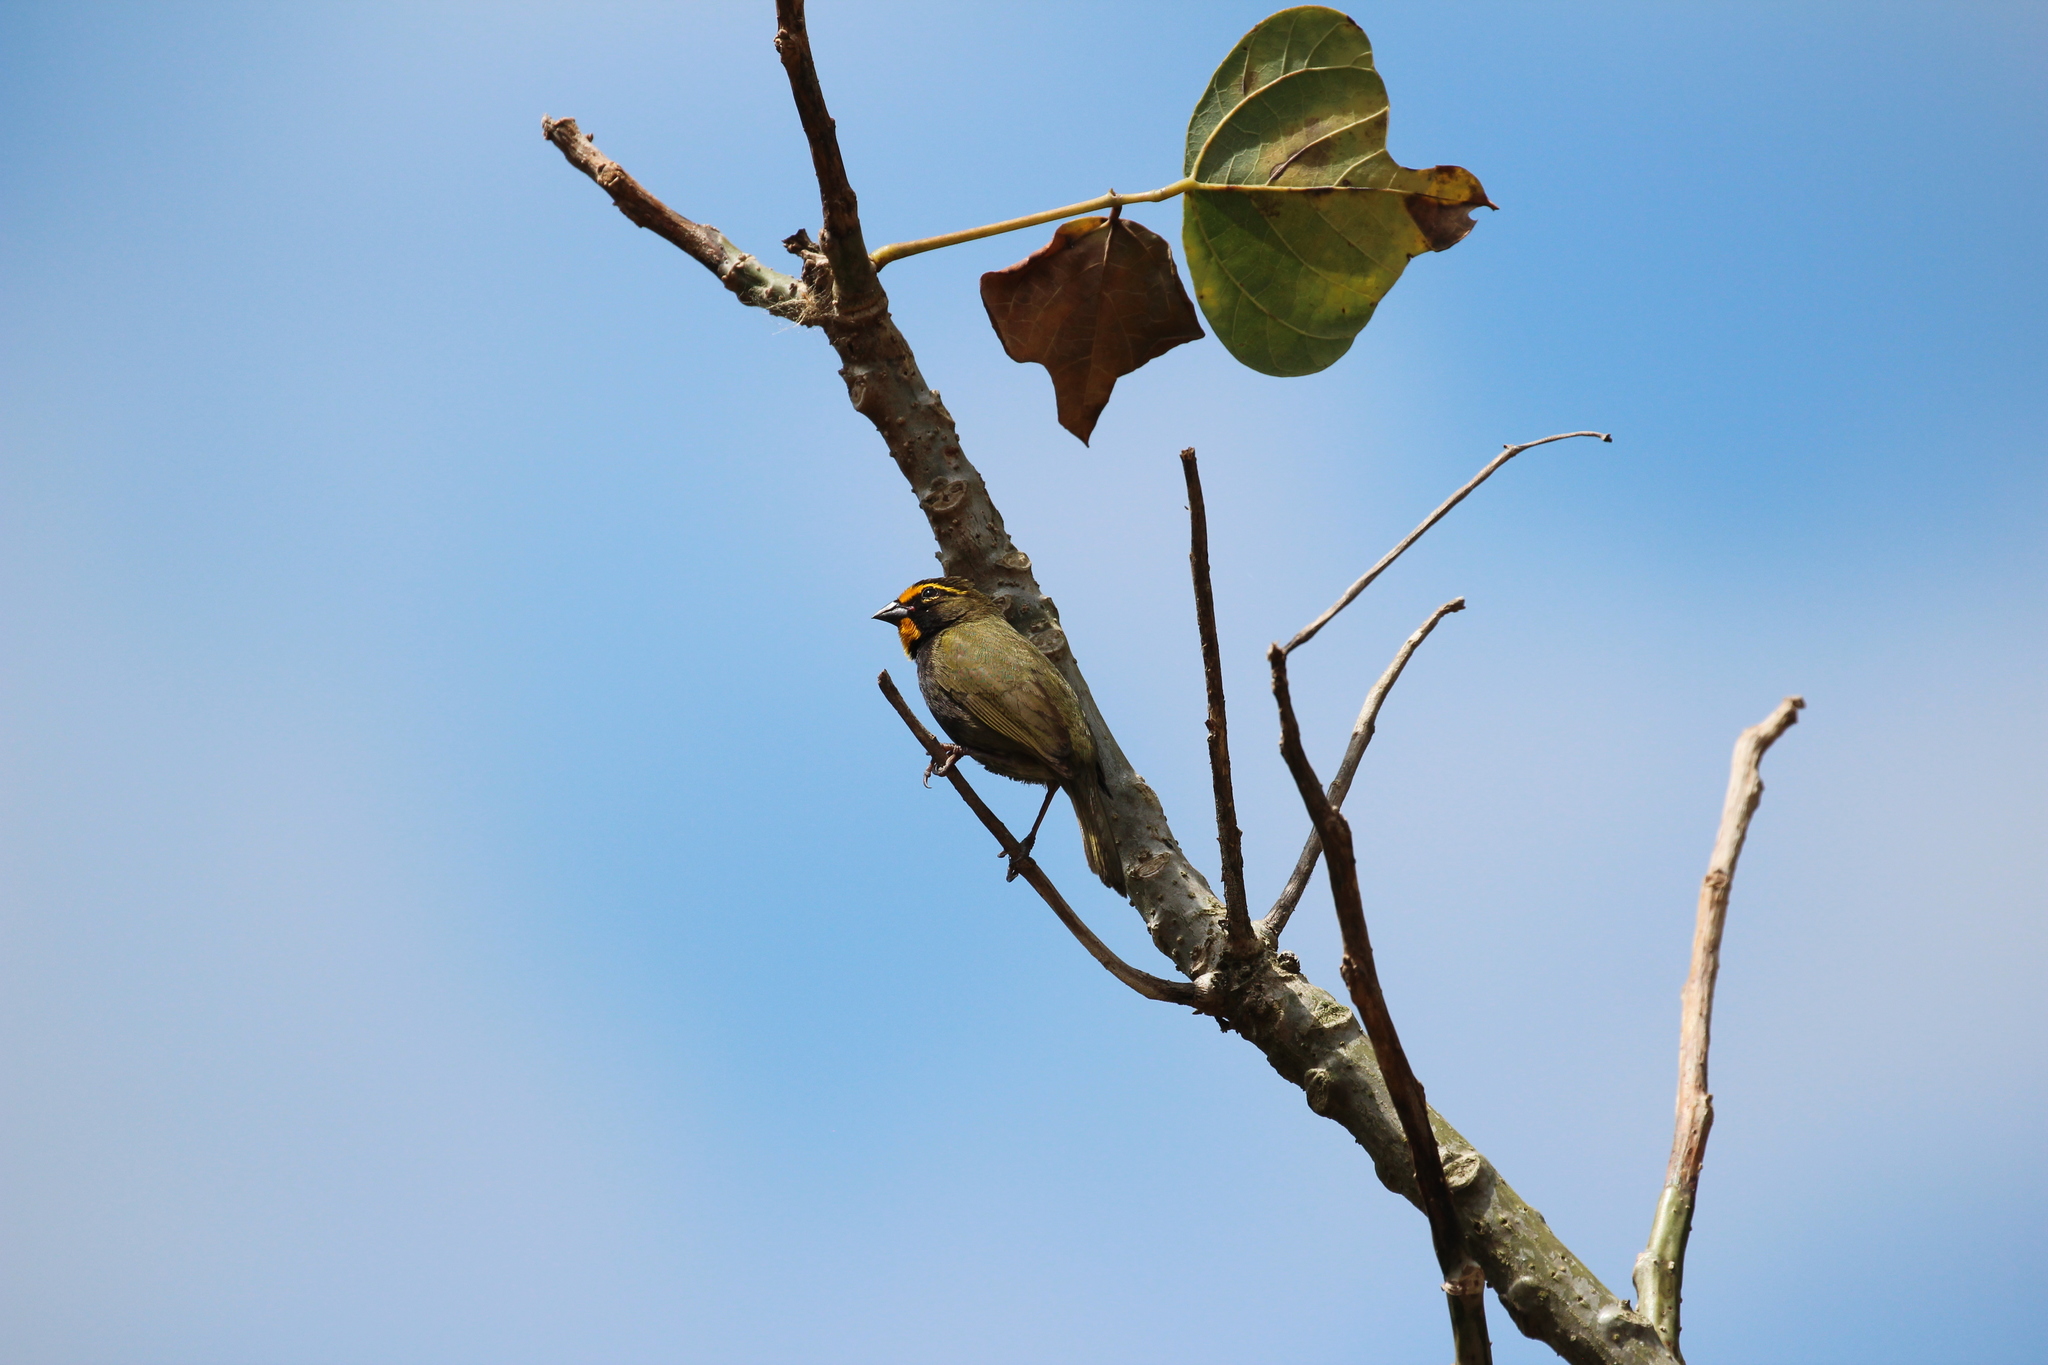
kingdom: Animalia
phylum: Chordata
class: Aves
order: Passeriformes
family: Thraupidae
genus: Tiaris
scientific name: Tiaris olivaceus
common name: Yellow-faced grassquit
